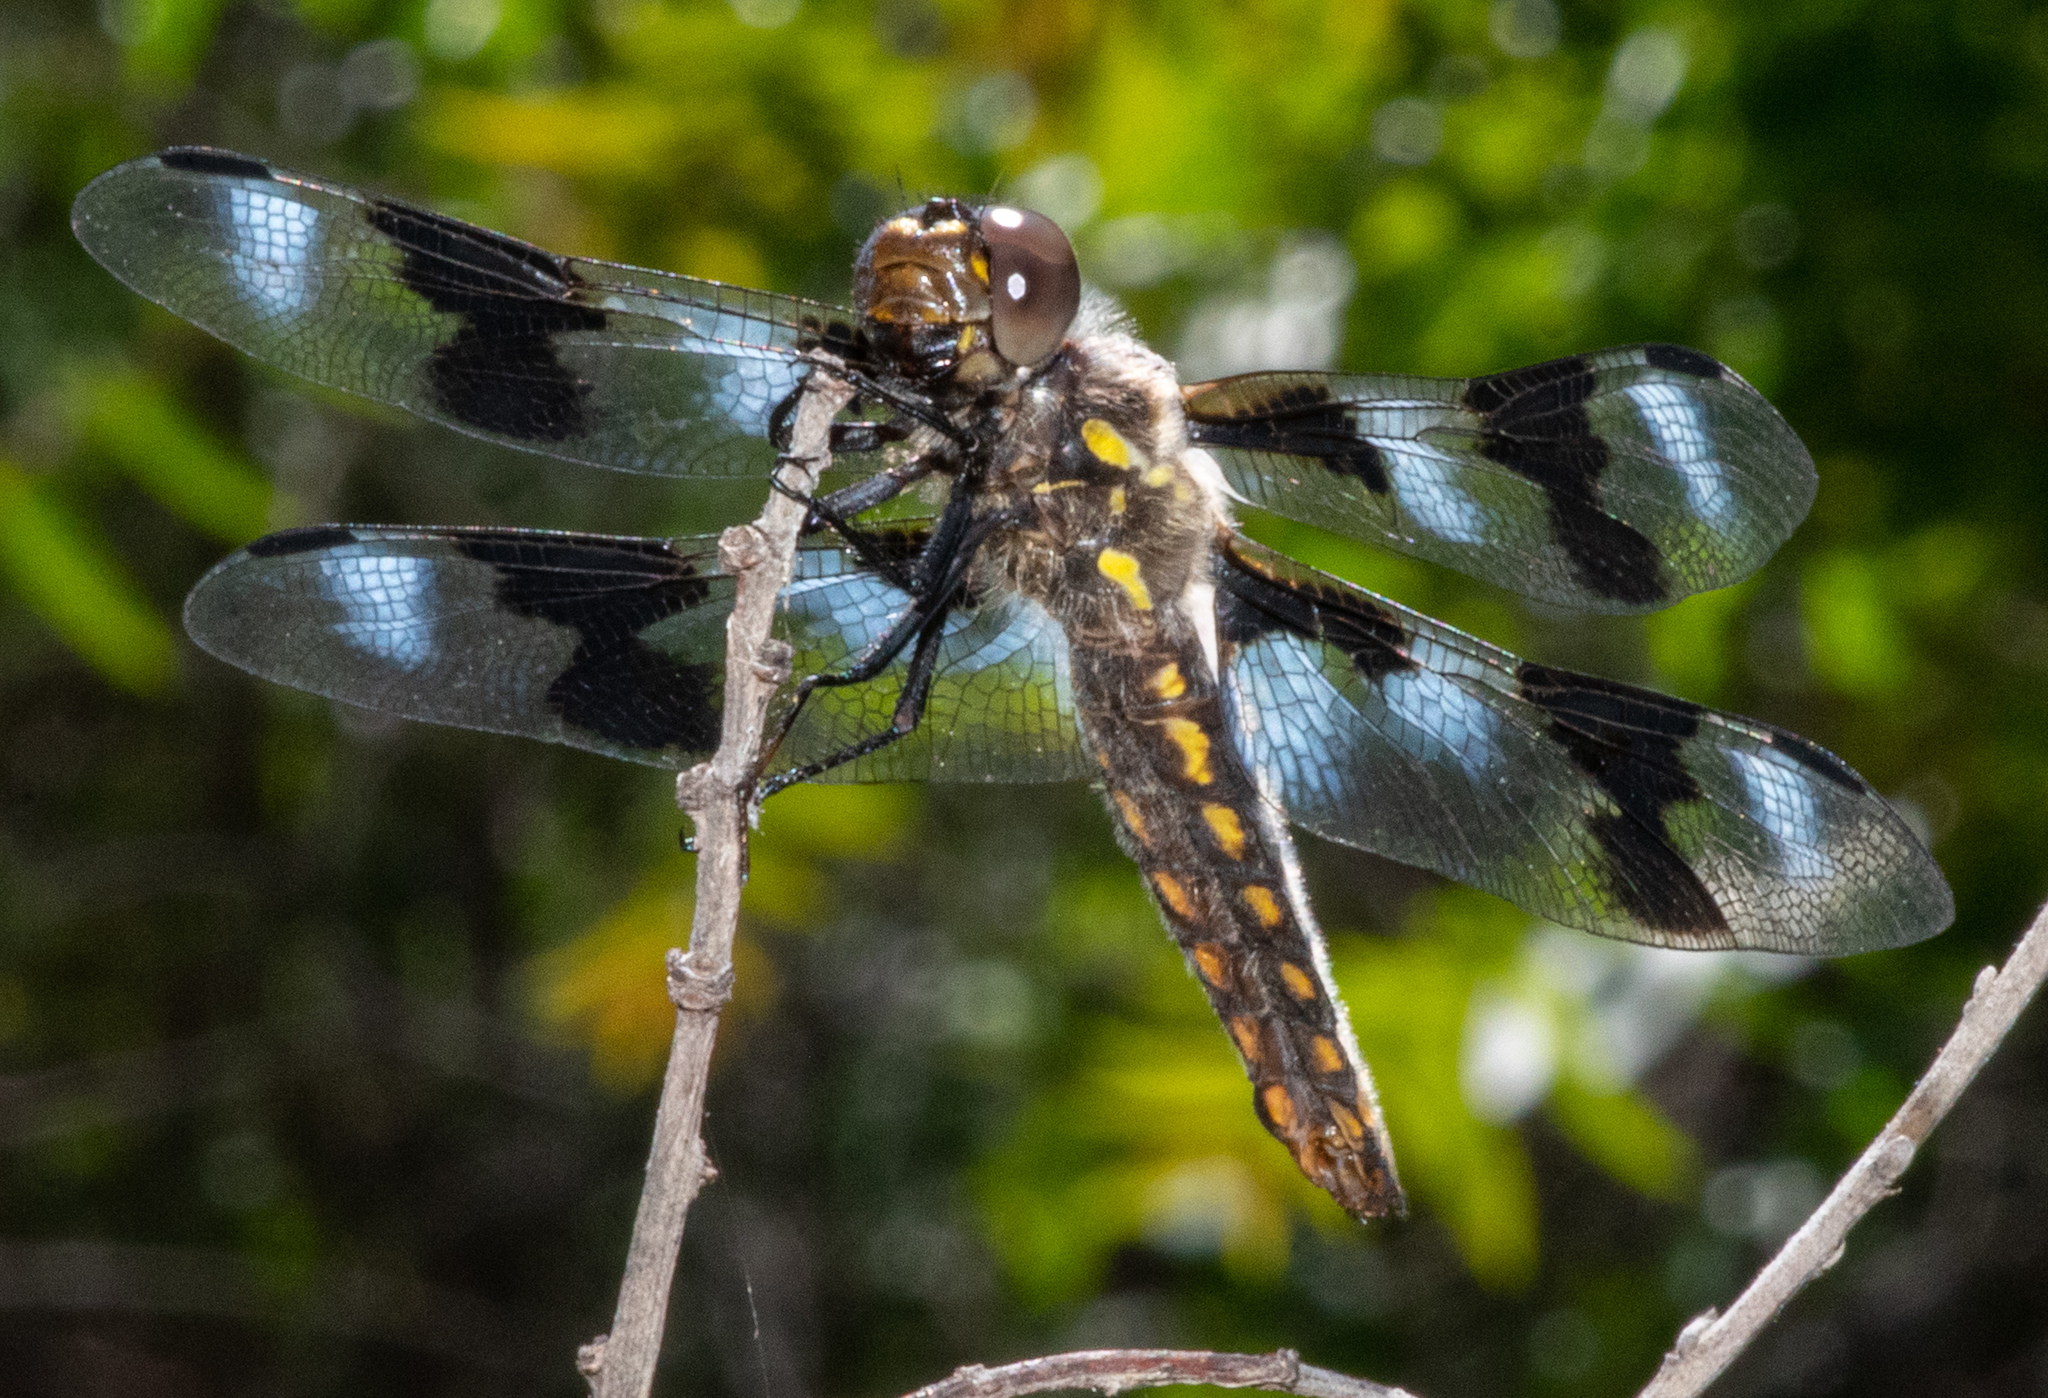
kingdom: Animalia
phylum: Arthropoda
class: Insecta
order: Odonata
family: Libellulidae
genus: Libellula
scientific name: Libellula forensis
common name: Eight-spotted skimmer
